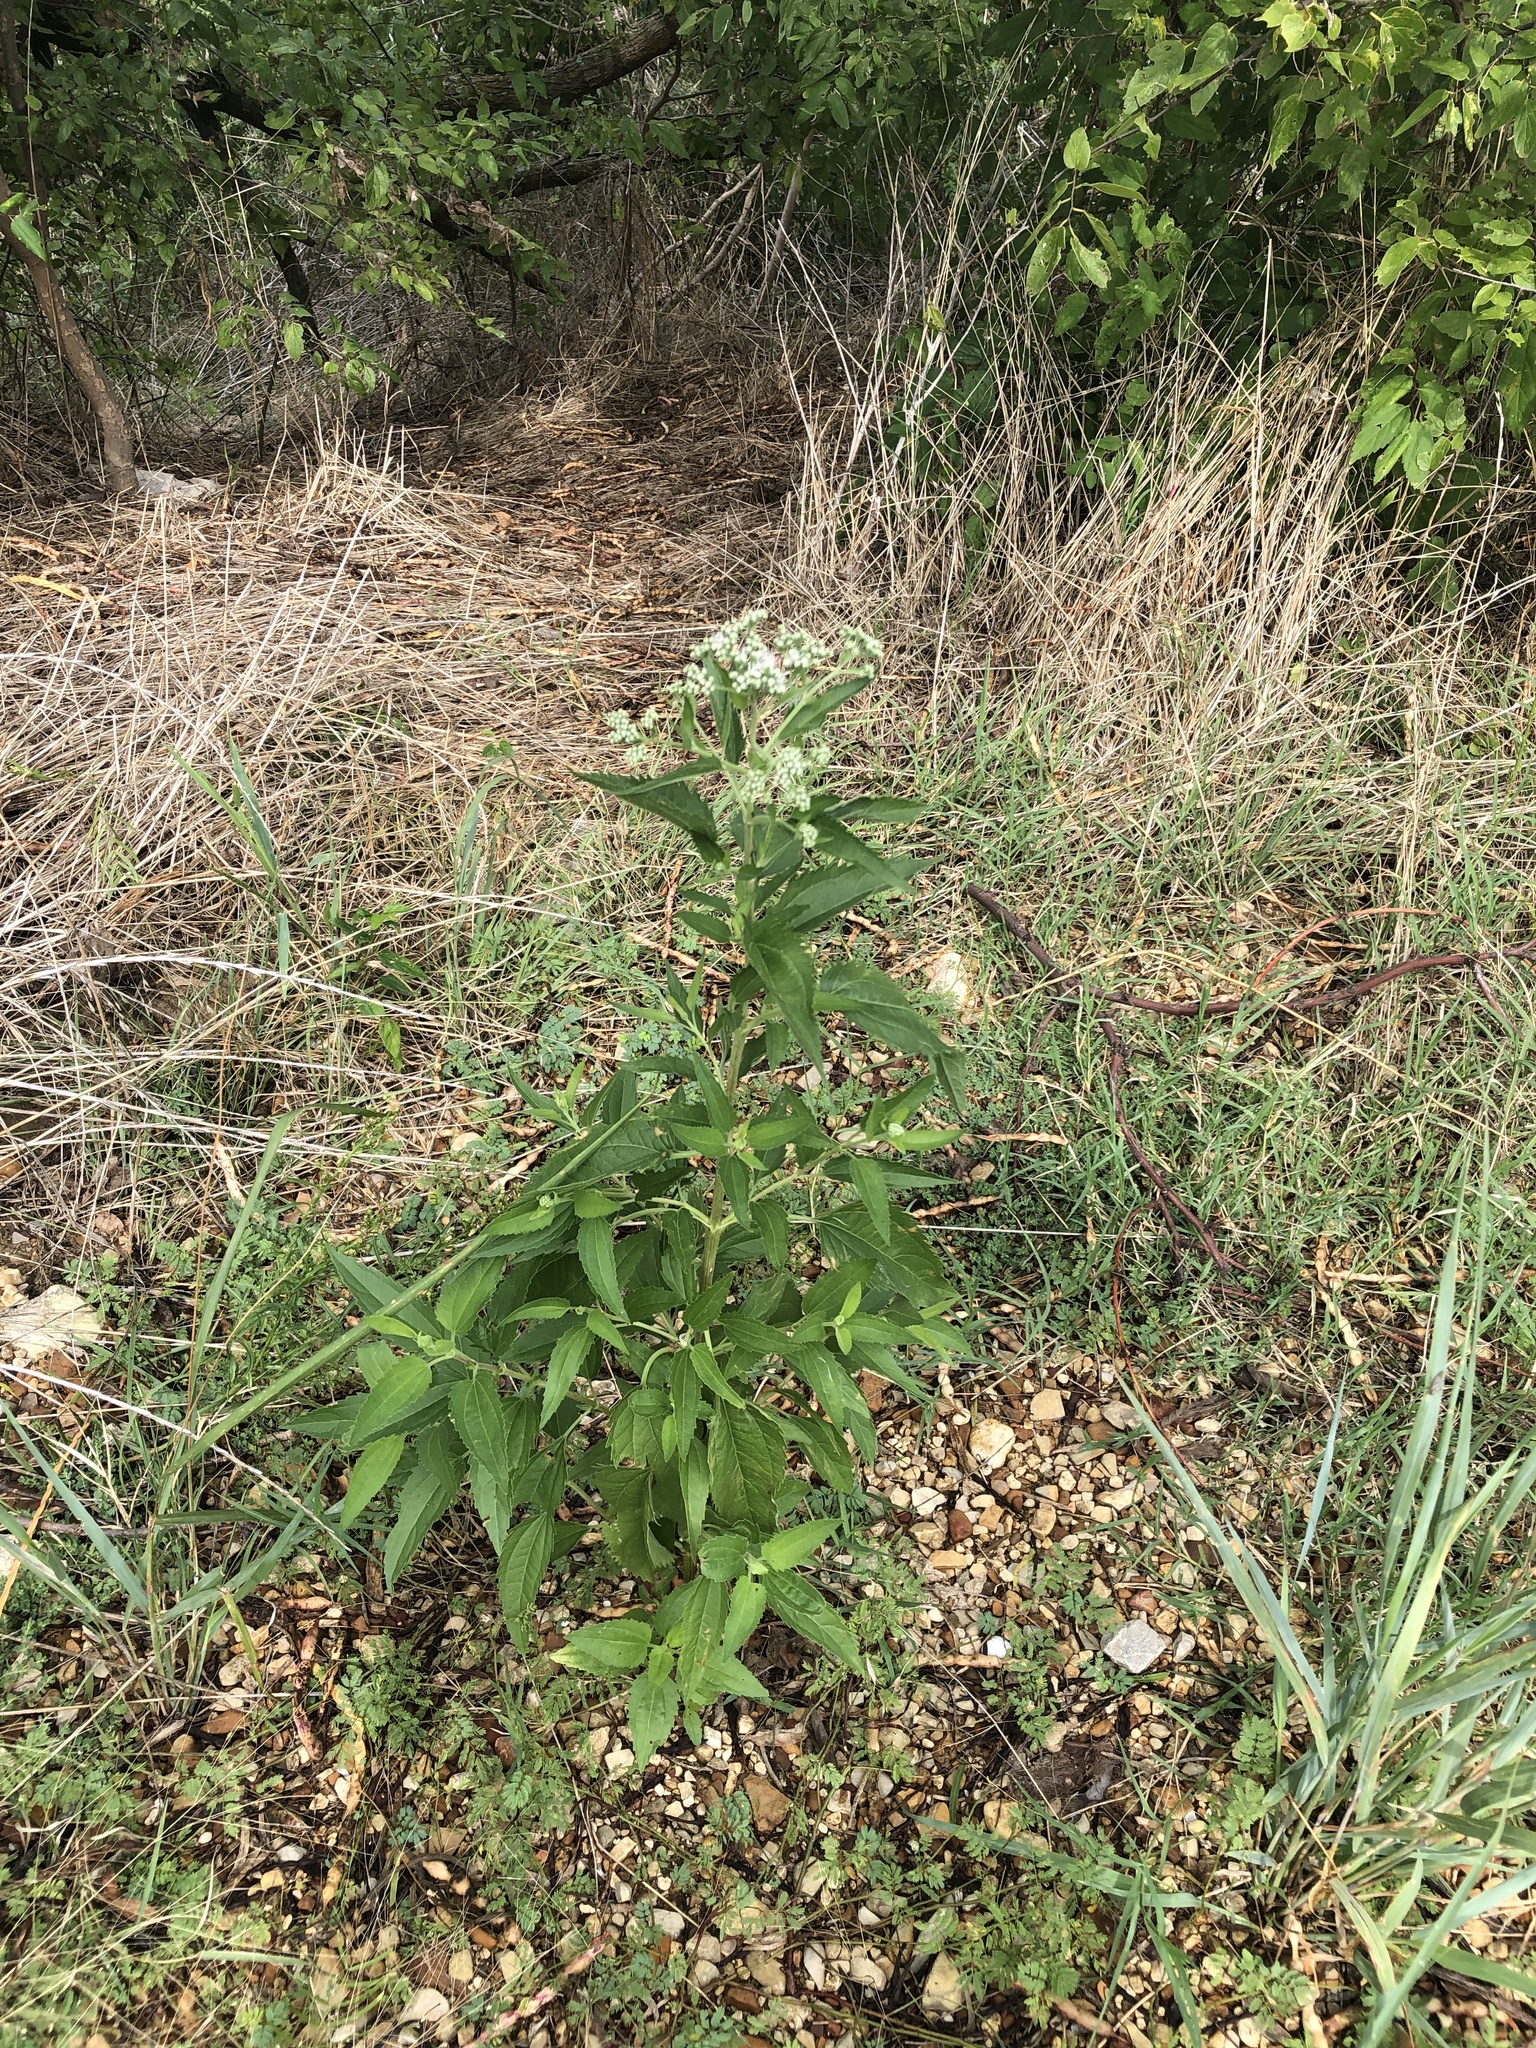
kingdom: Plantae
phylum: Tracheophyta
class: Magnoliopsida
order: Asterales
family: Asteraceae
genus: Eupatorium
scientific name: Eupatorium serotinum
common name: Late boneset
